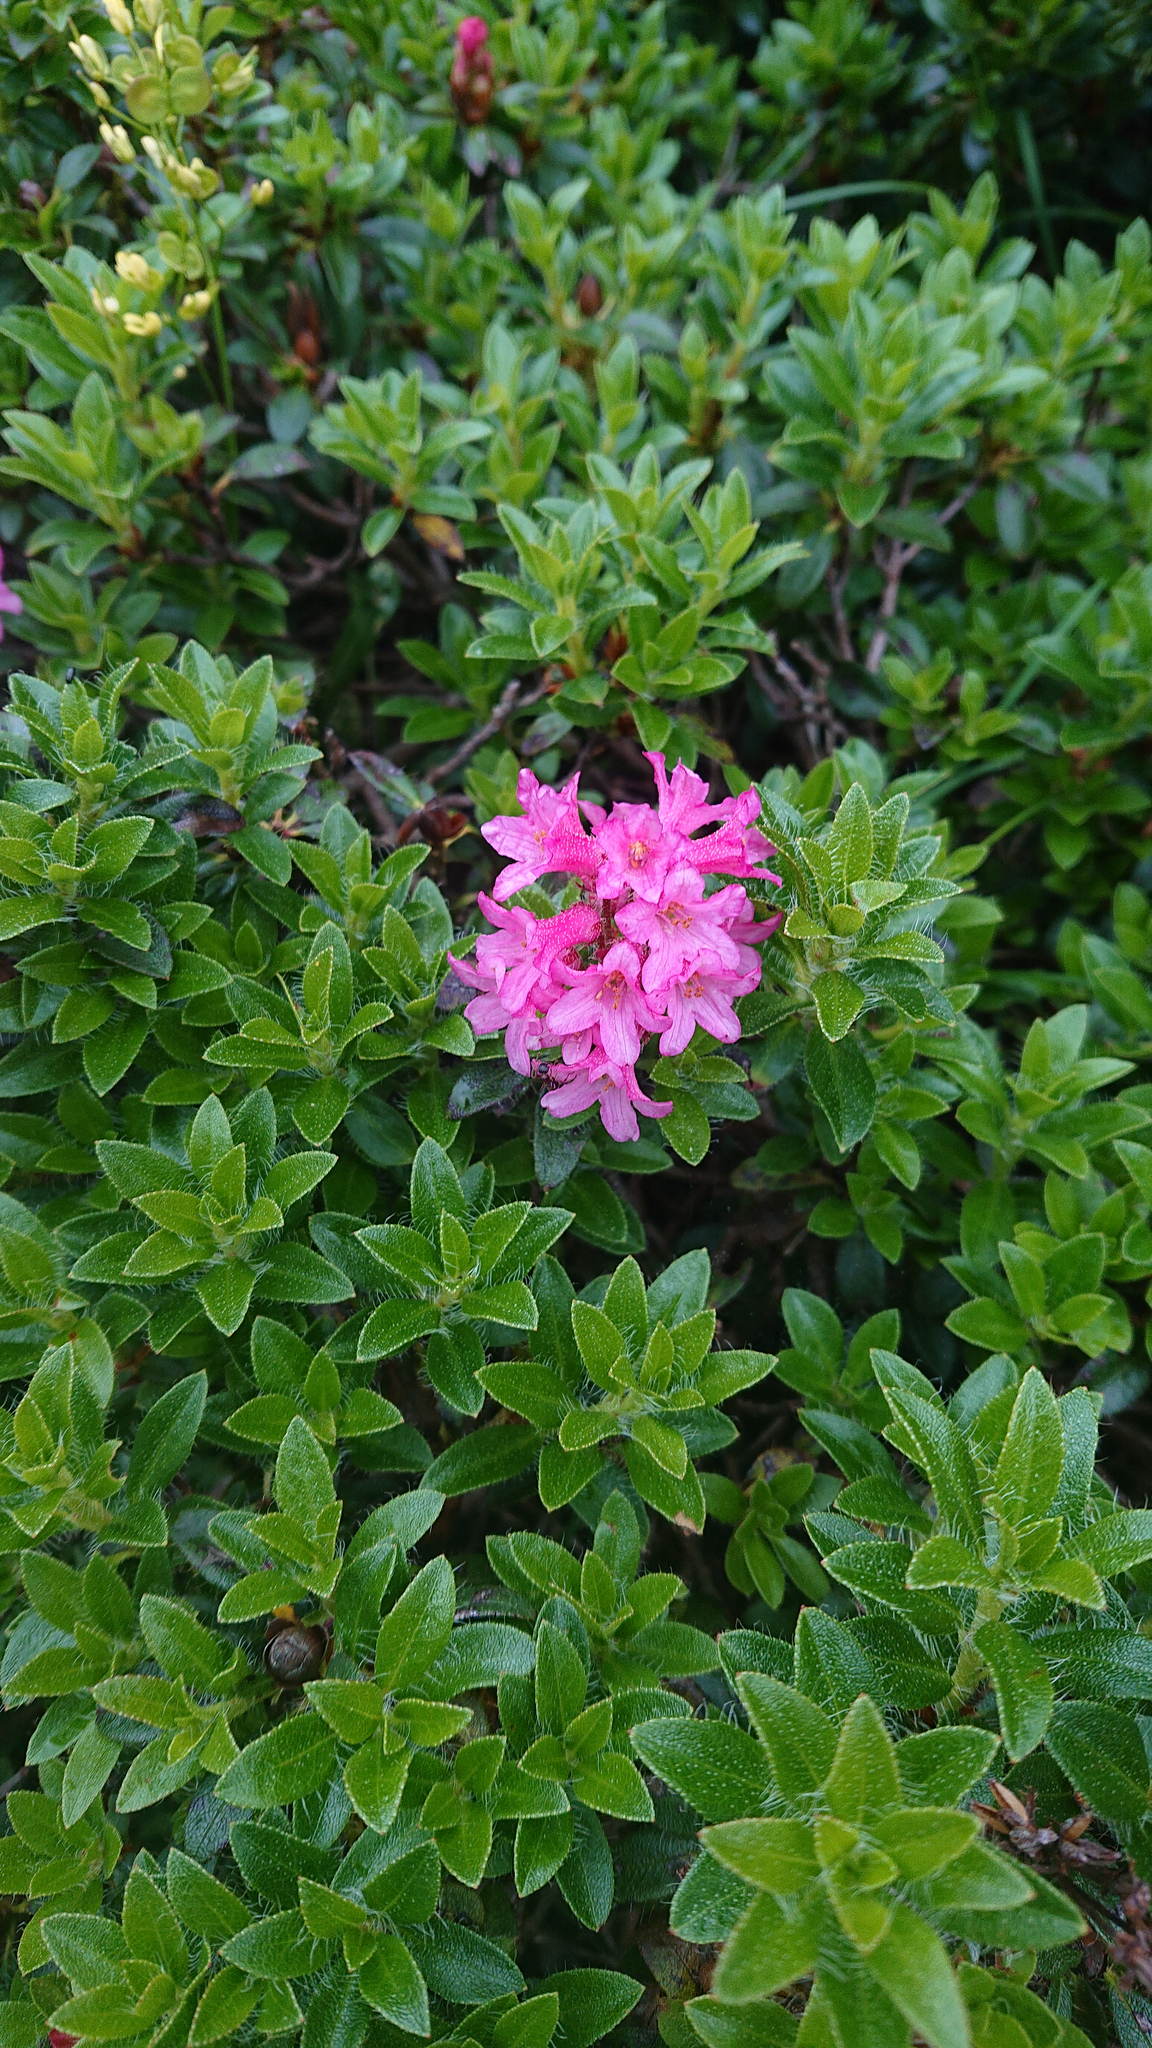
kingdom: Plantae
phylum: Tracheophyta
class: Magnoliopsida
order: Ericales
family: Ericaceae
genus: Rhododendron
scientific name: Rhododendron hirsutum
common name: Hairy alpenrose
